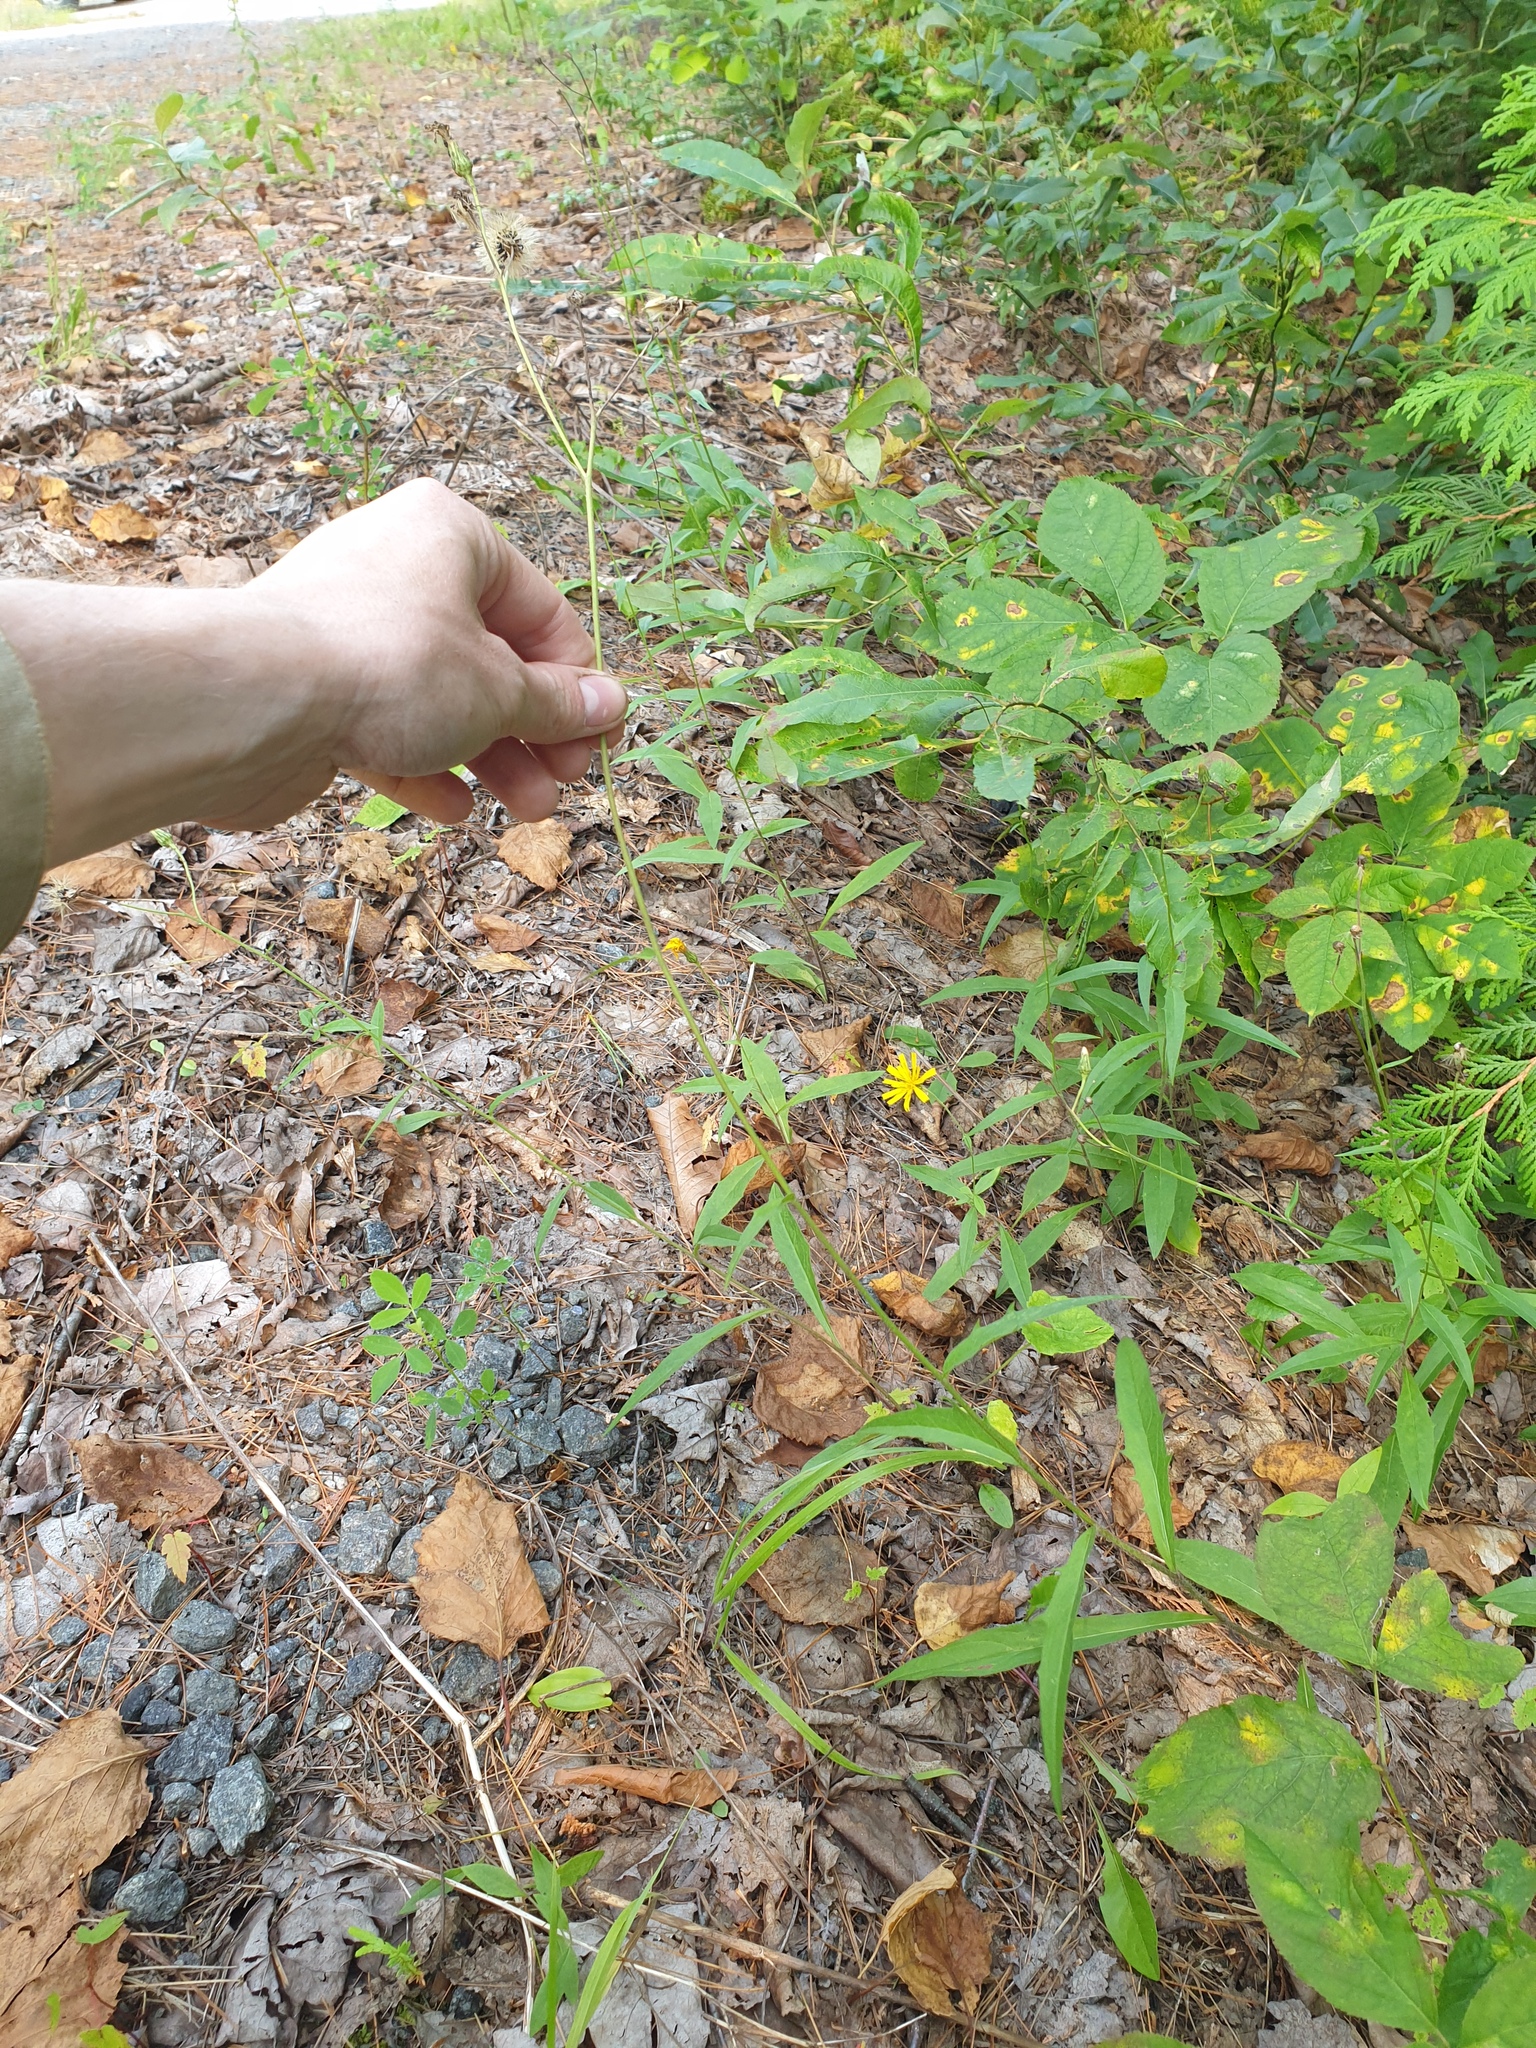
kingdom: Plantae
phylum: Tracheophyta
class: Magnoliopsida
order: Asterales
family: Asteraceae
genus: Hieracium
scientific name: Hieracium tridentatum
